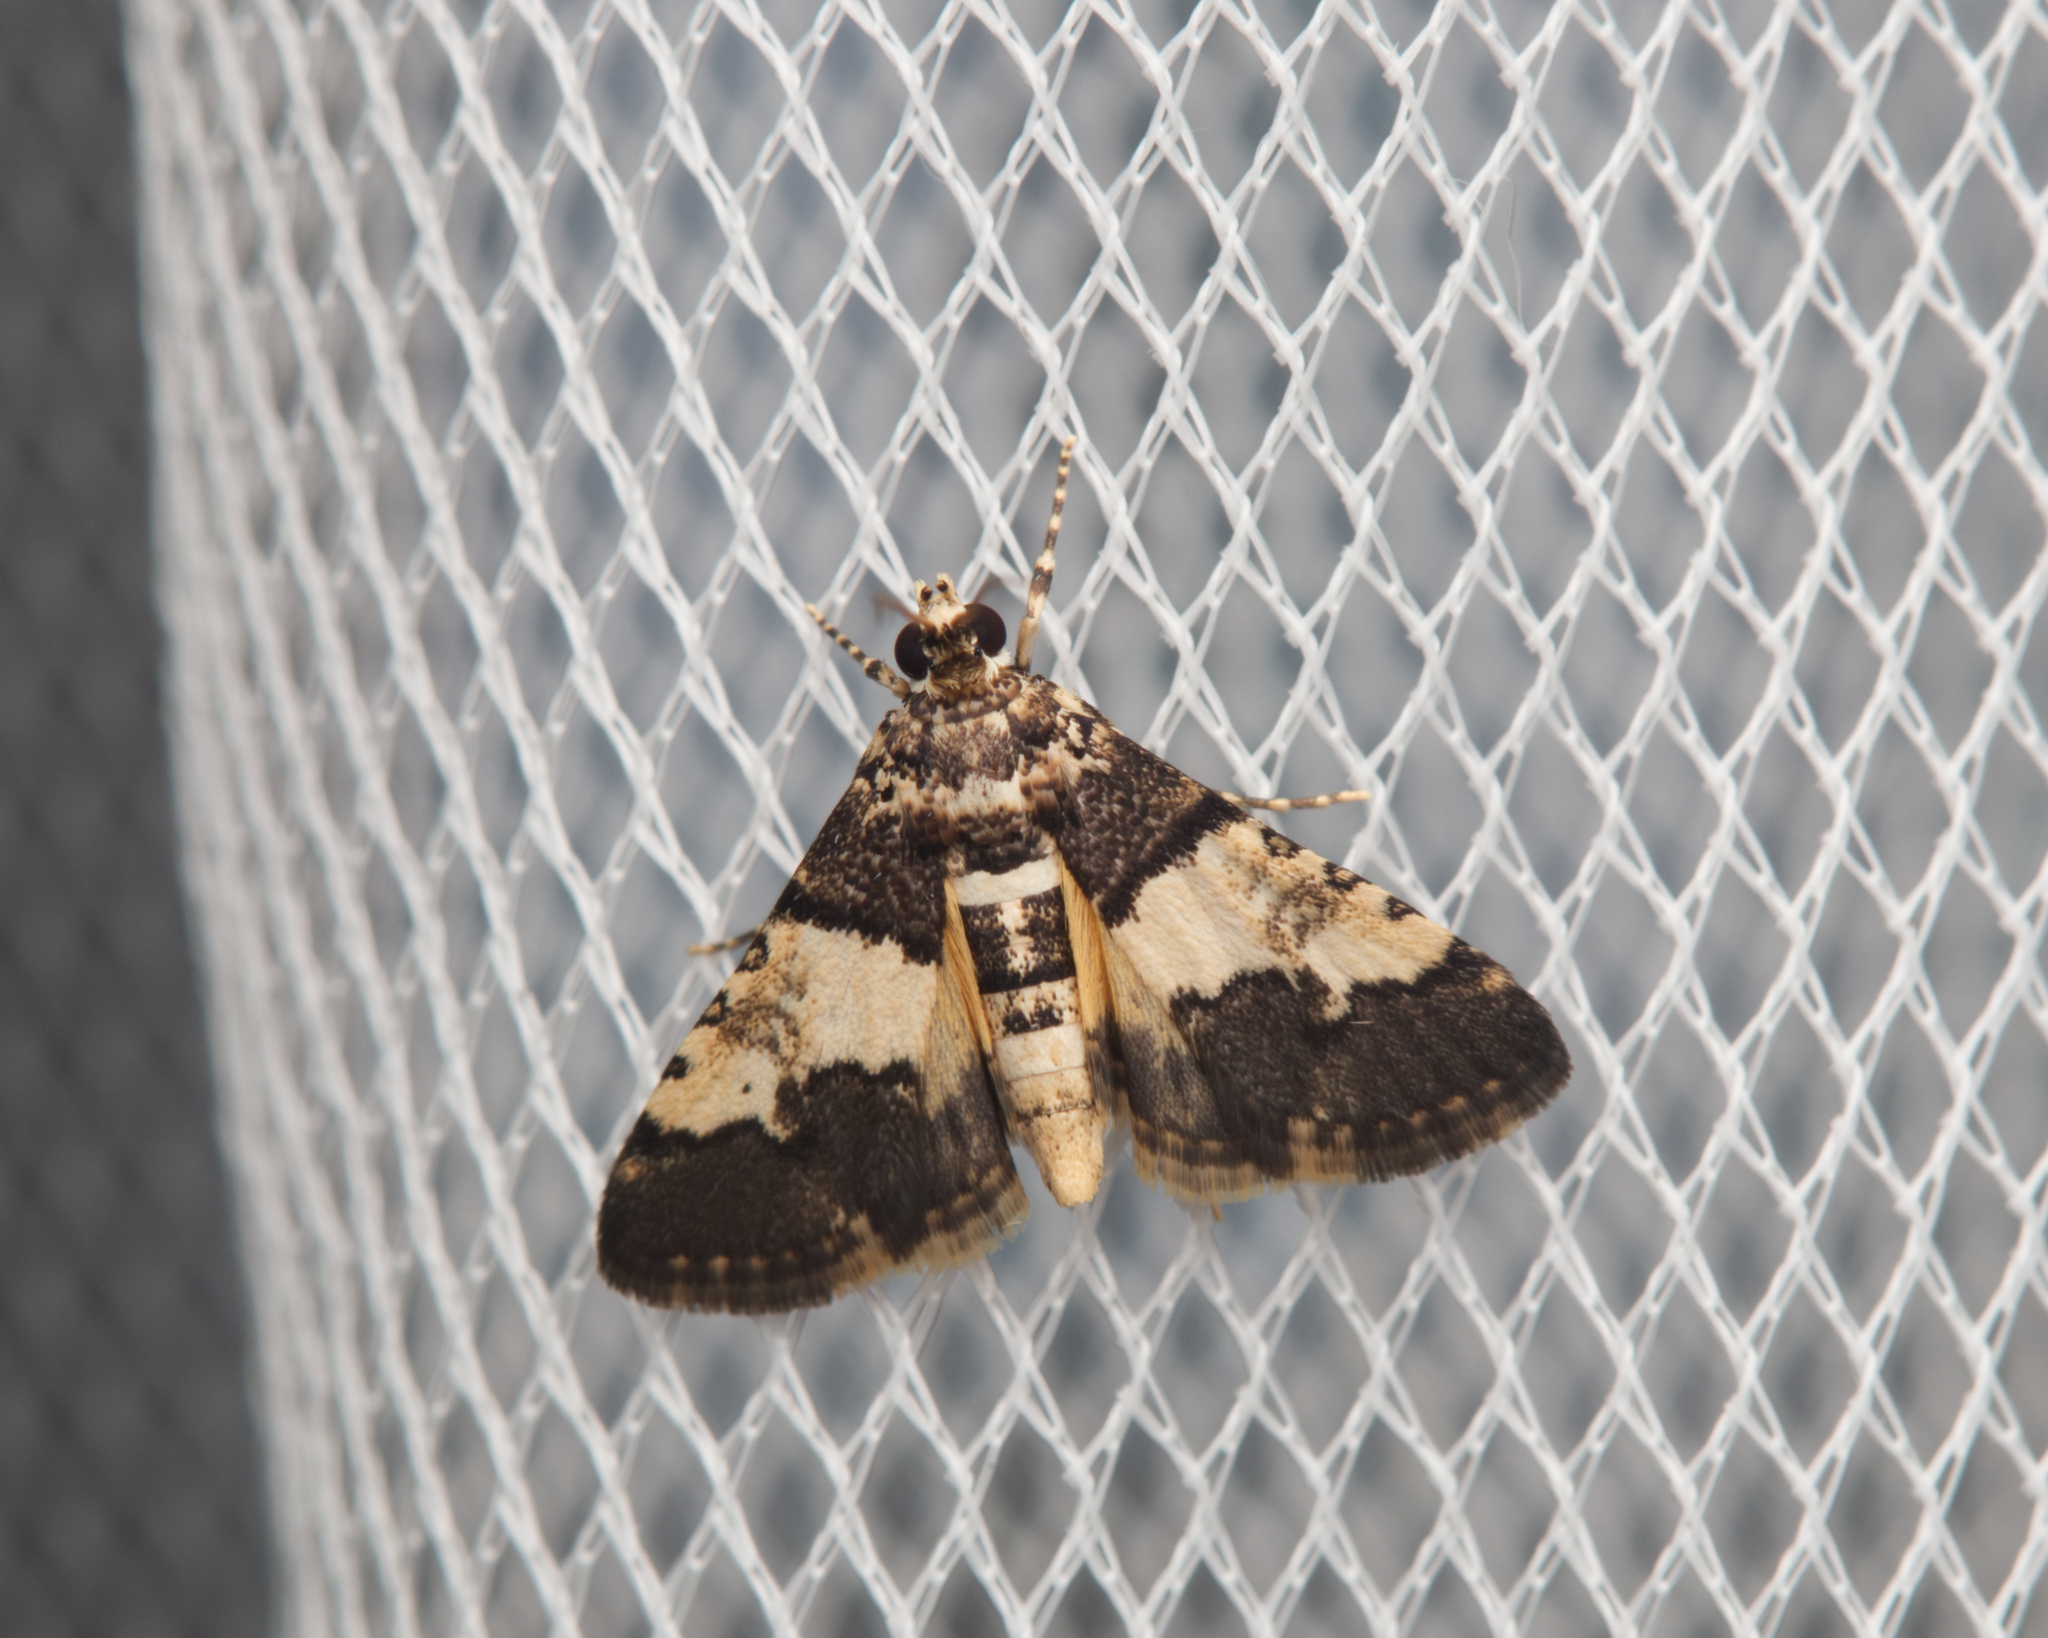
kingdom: Animalia
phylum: Arthropoda
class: Insecta
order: Lepidoptera
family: Crambidae
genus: Nacoleia
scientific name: Nacoleia mesochlora
